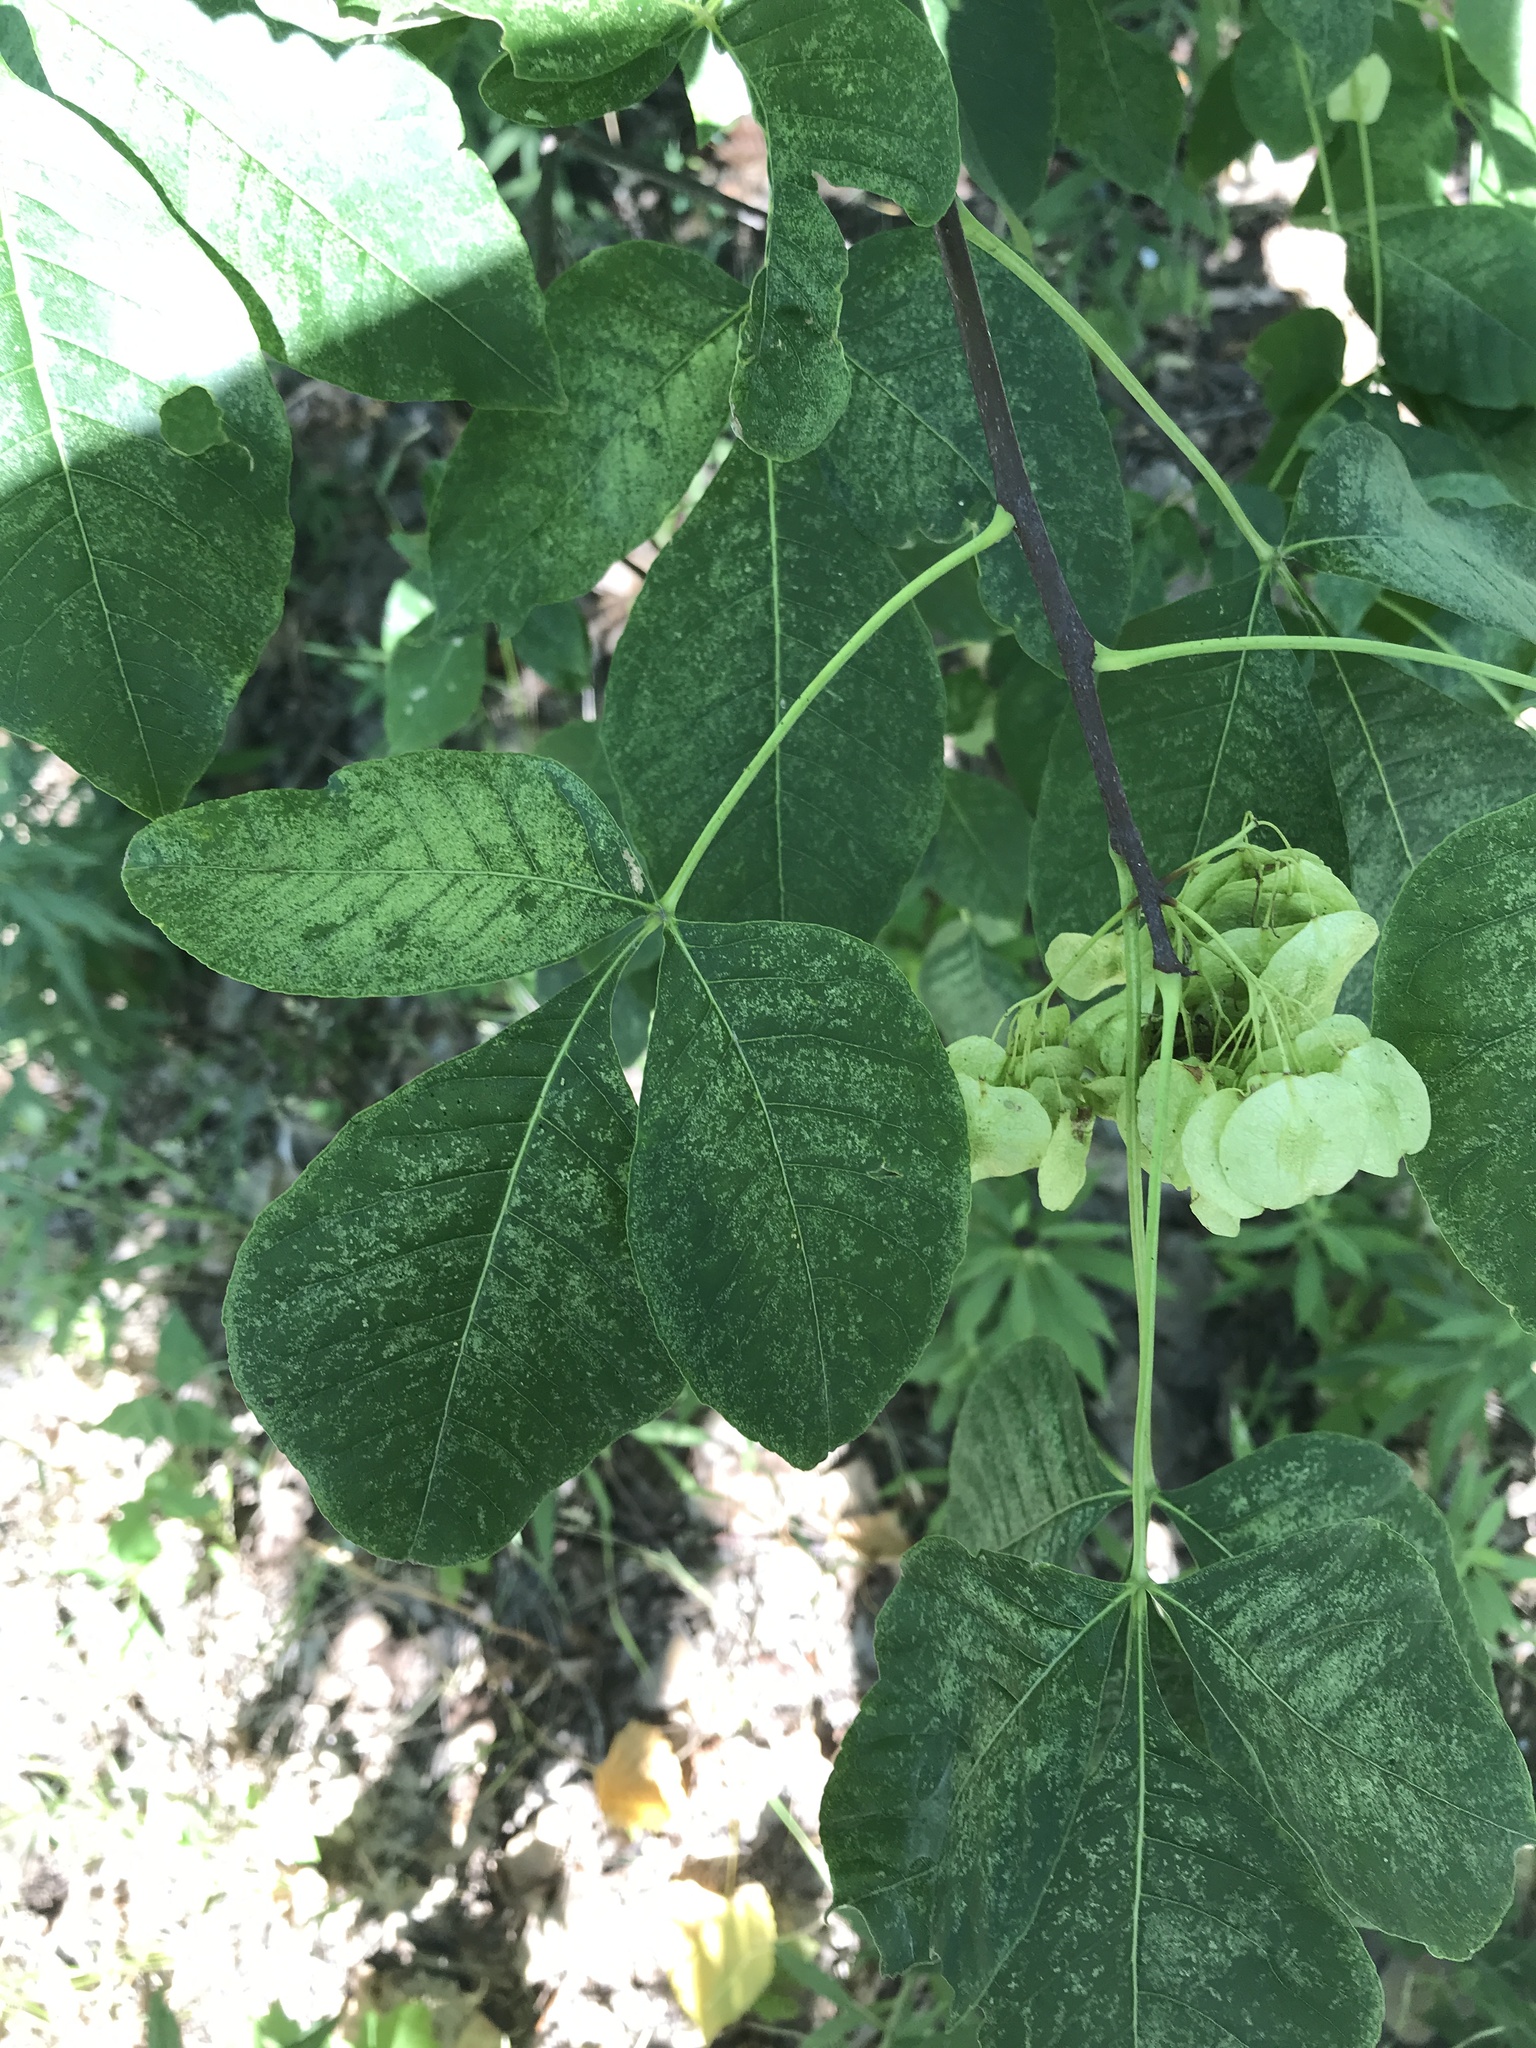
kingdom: Plantae
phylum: Tracheophyta
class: Magnoliopsida
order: Sapindales
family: Rutaceae
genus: Ptelea
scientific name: Ptelea trifoliata
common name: Common hop-tree
